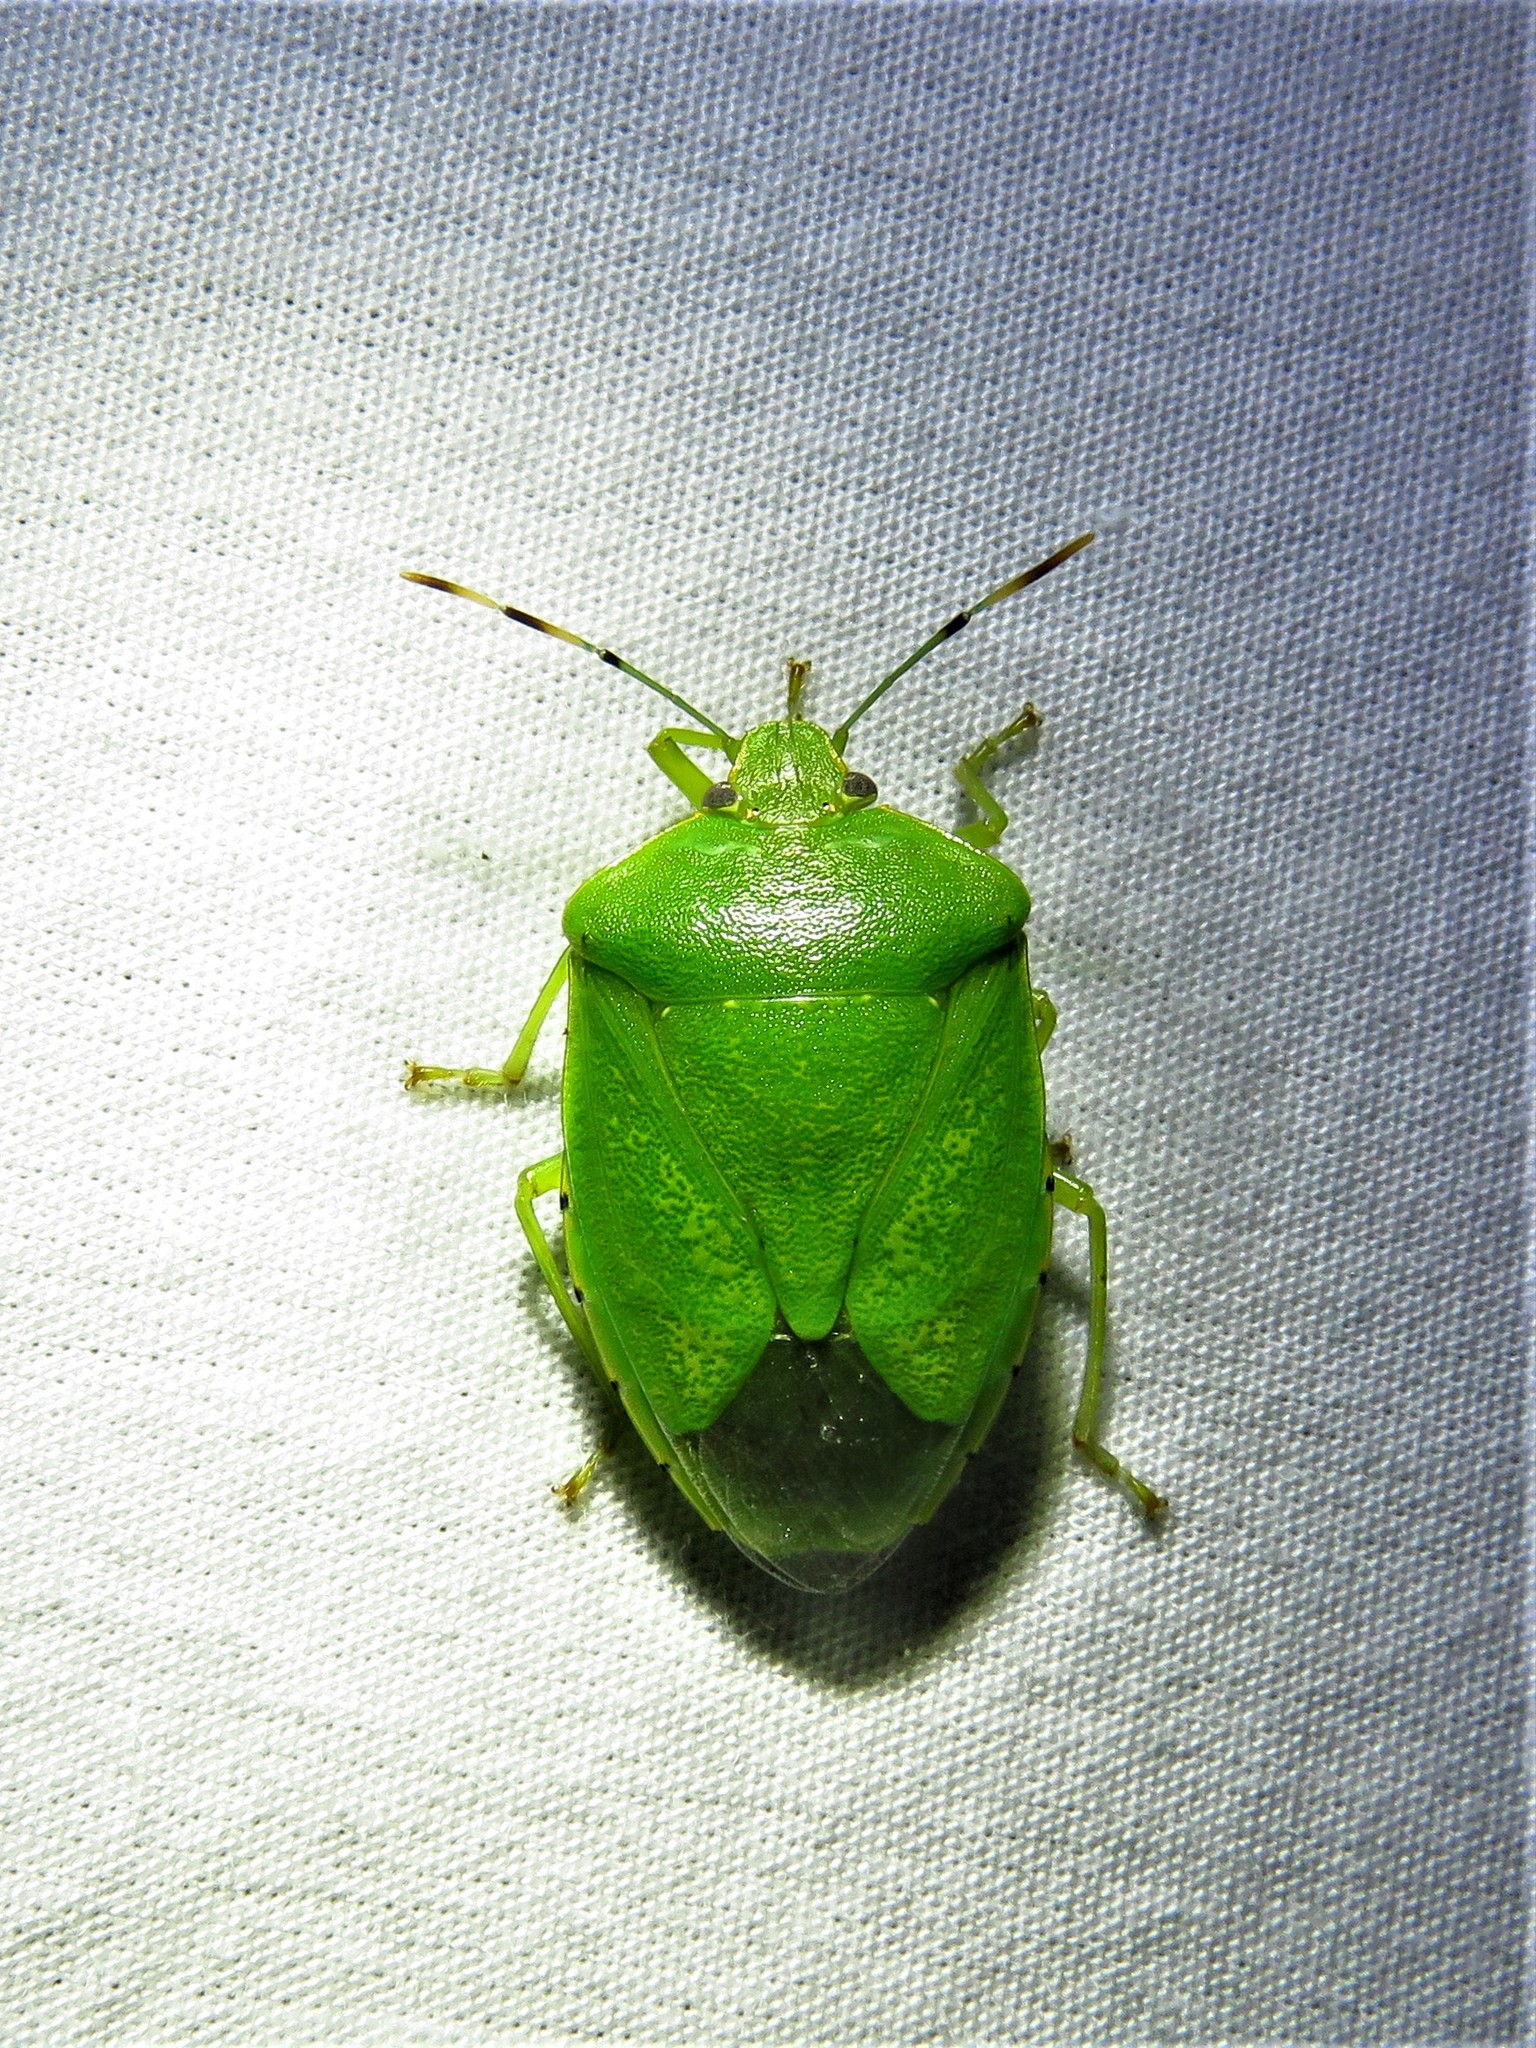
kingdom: Animalia
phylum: Arthropoda
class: Insecta
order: Hemiptera
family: Pentatomidae
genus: Chinavia
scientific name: Chinavia hilaris
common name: Green stink bug
